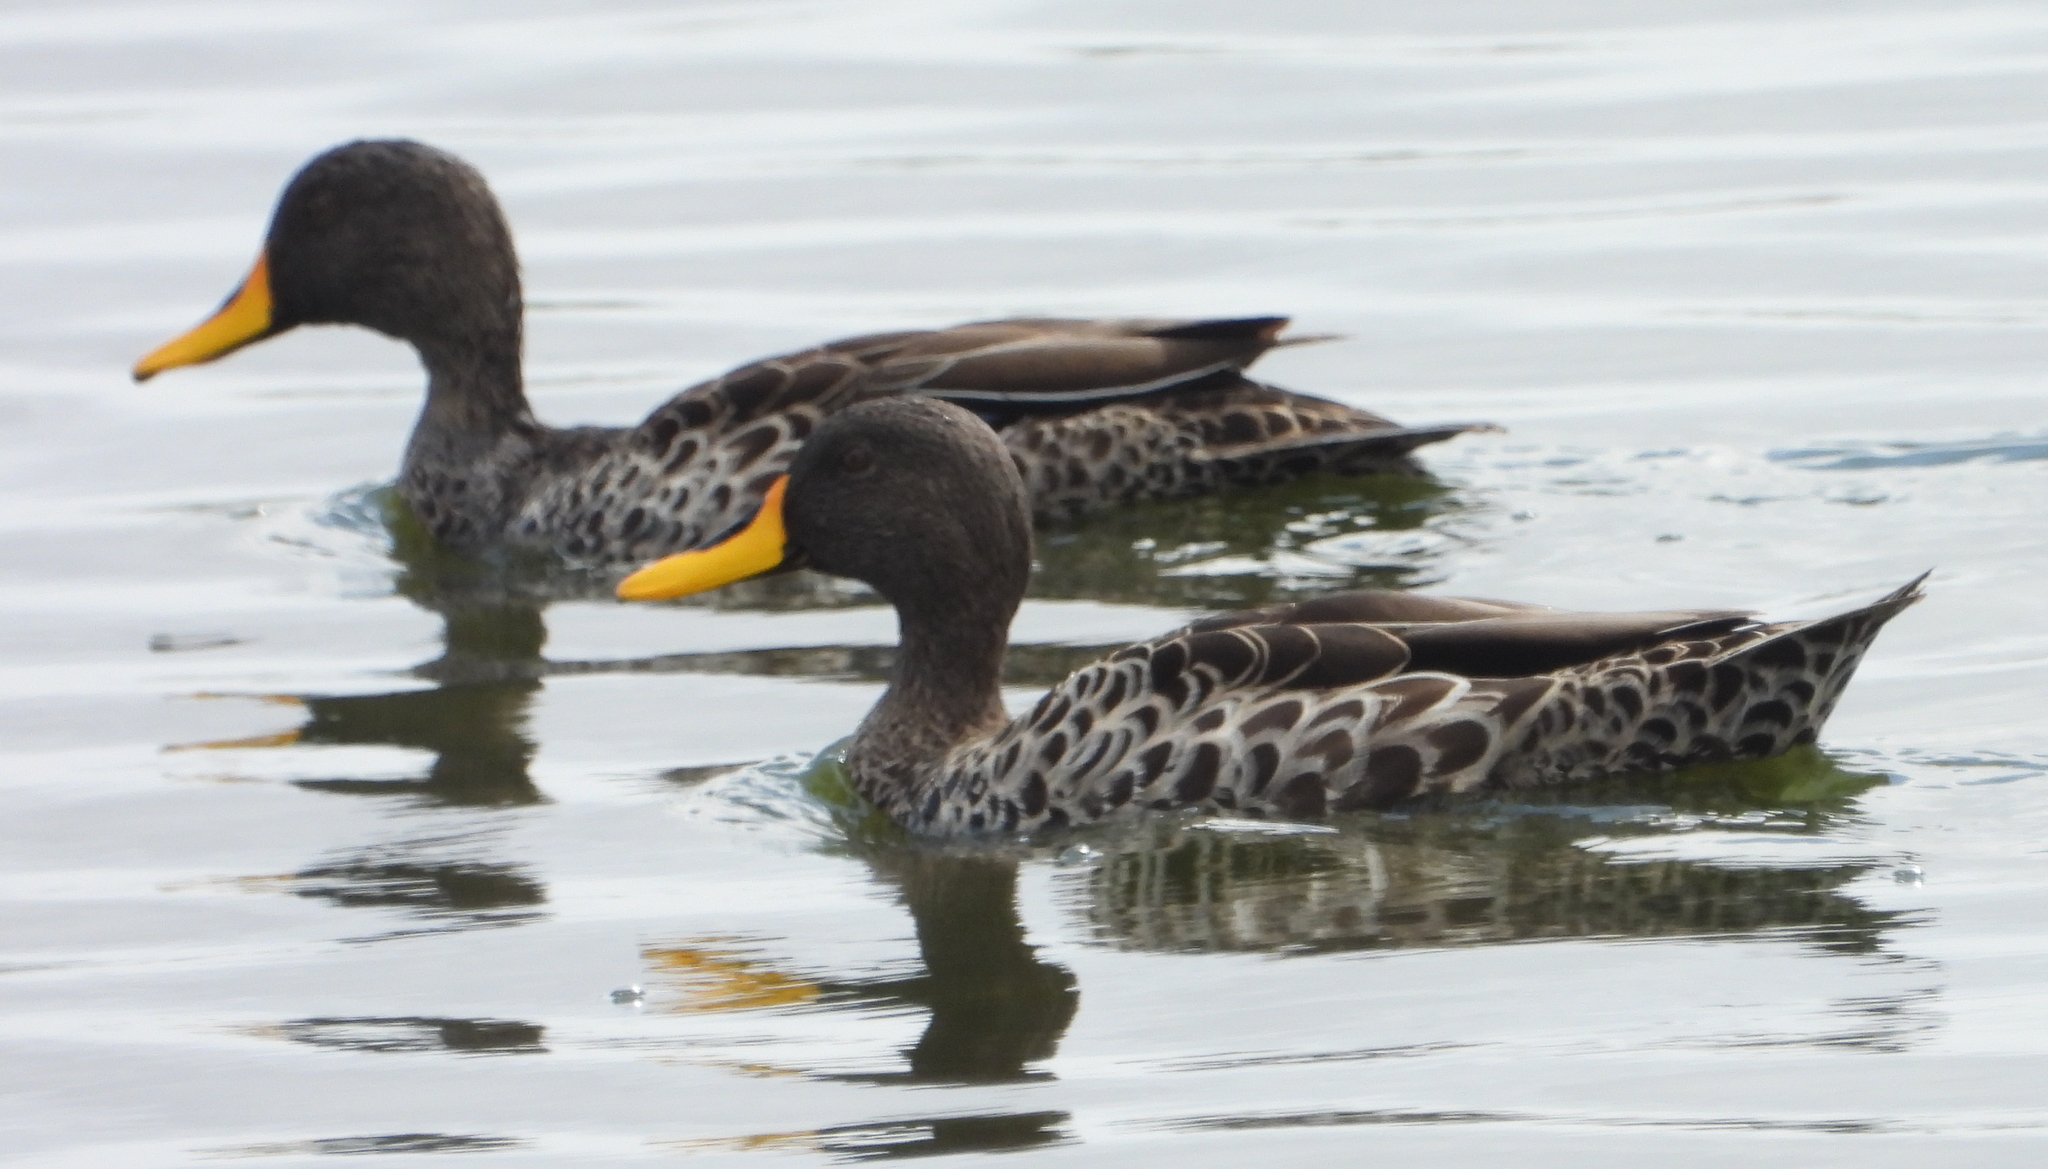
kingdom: Animalia
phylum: Chordata
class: Aves
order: Anseriformes
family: Anatidae
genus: Anas
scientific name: Anas undulata
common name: Yellow-billed duck
